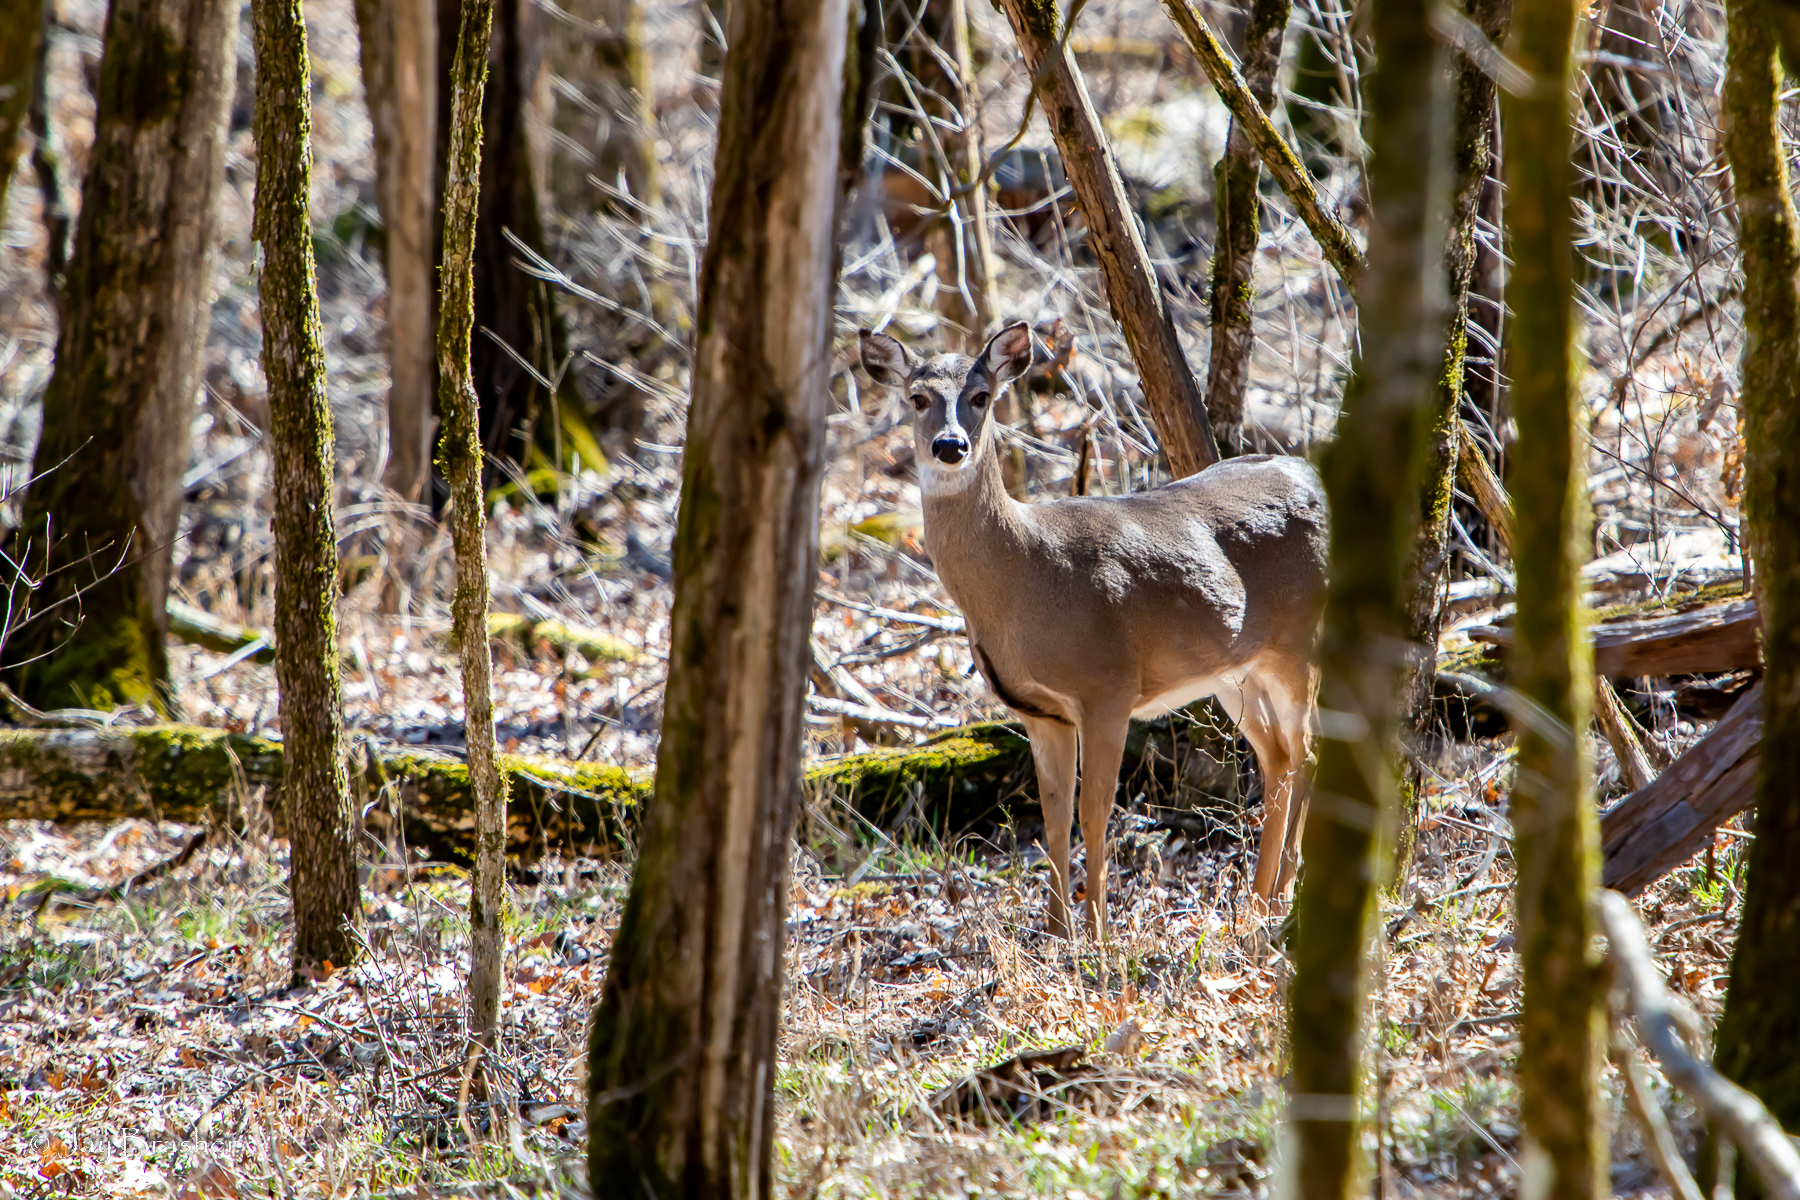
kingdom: Animalia
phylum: Chordata
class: Mammalia
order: Artiodactyla
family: Cervidae
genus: Odocoileus
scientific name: Odocoileus virginianus
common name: White-tailed deer
